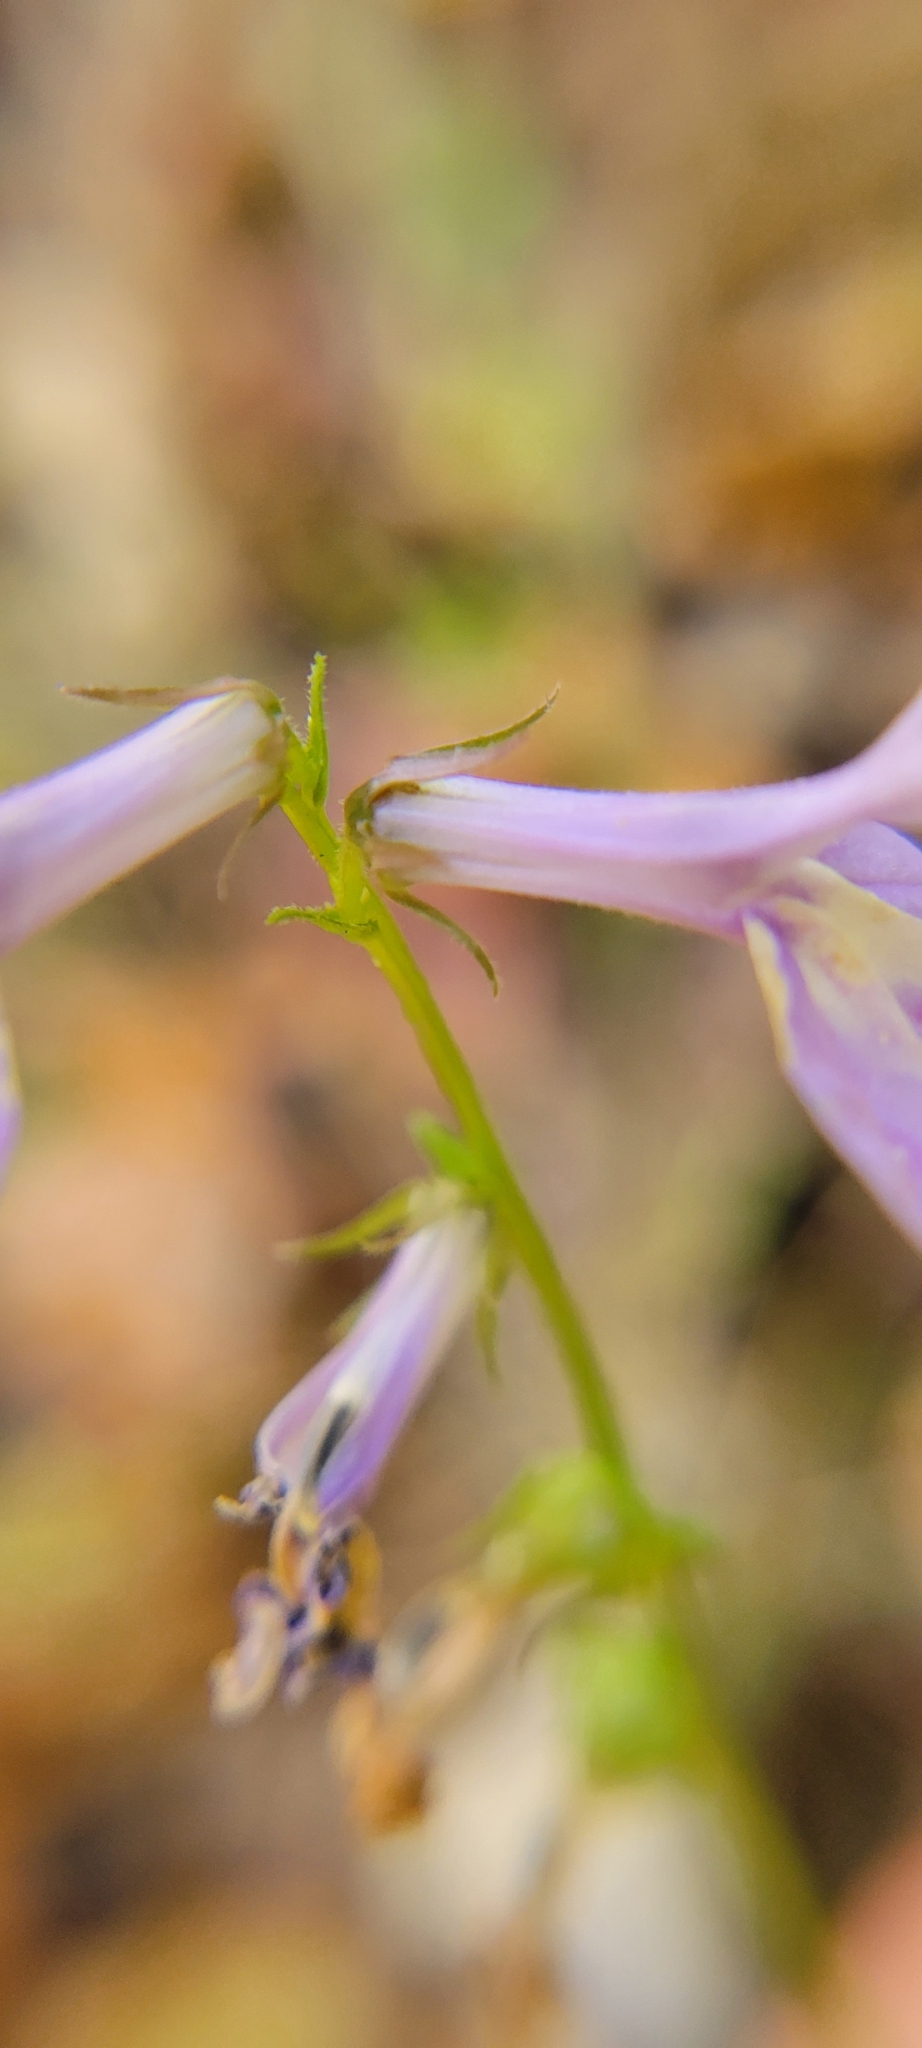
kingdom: Plantae
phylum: Tracheophyta
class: Magnoliopsida
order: Asterales
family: Campanulaceae
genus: Lobelia
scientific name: Lobelia puberula
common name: Purple dewdrop
